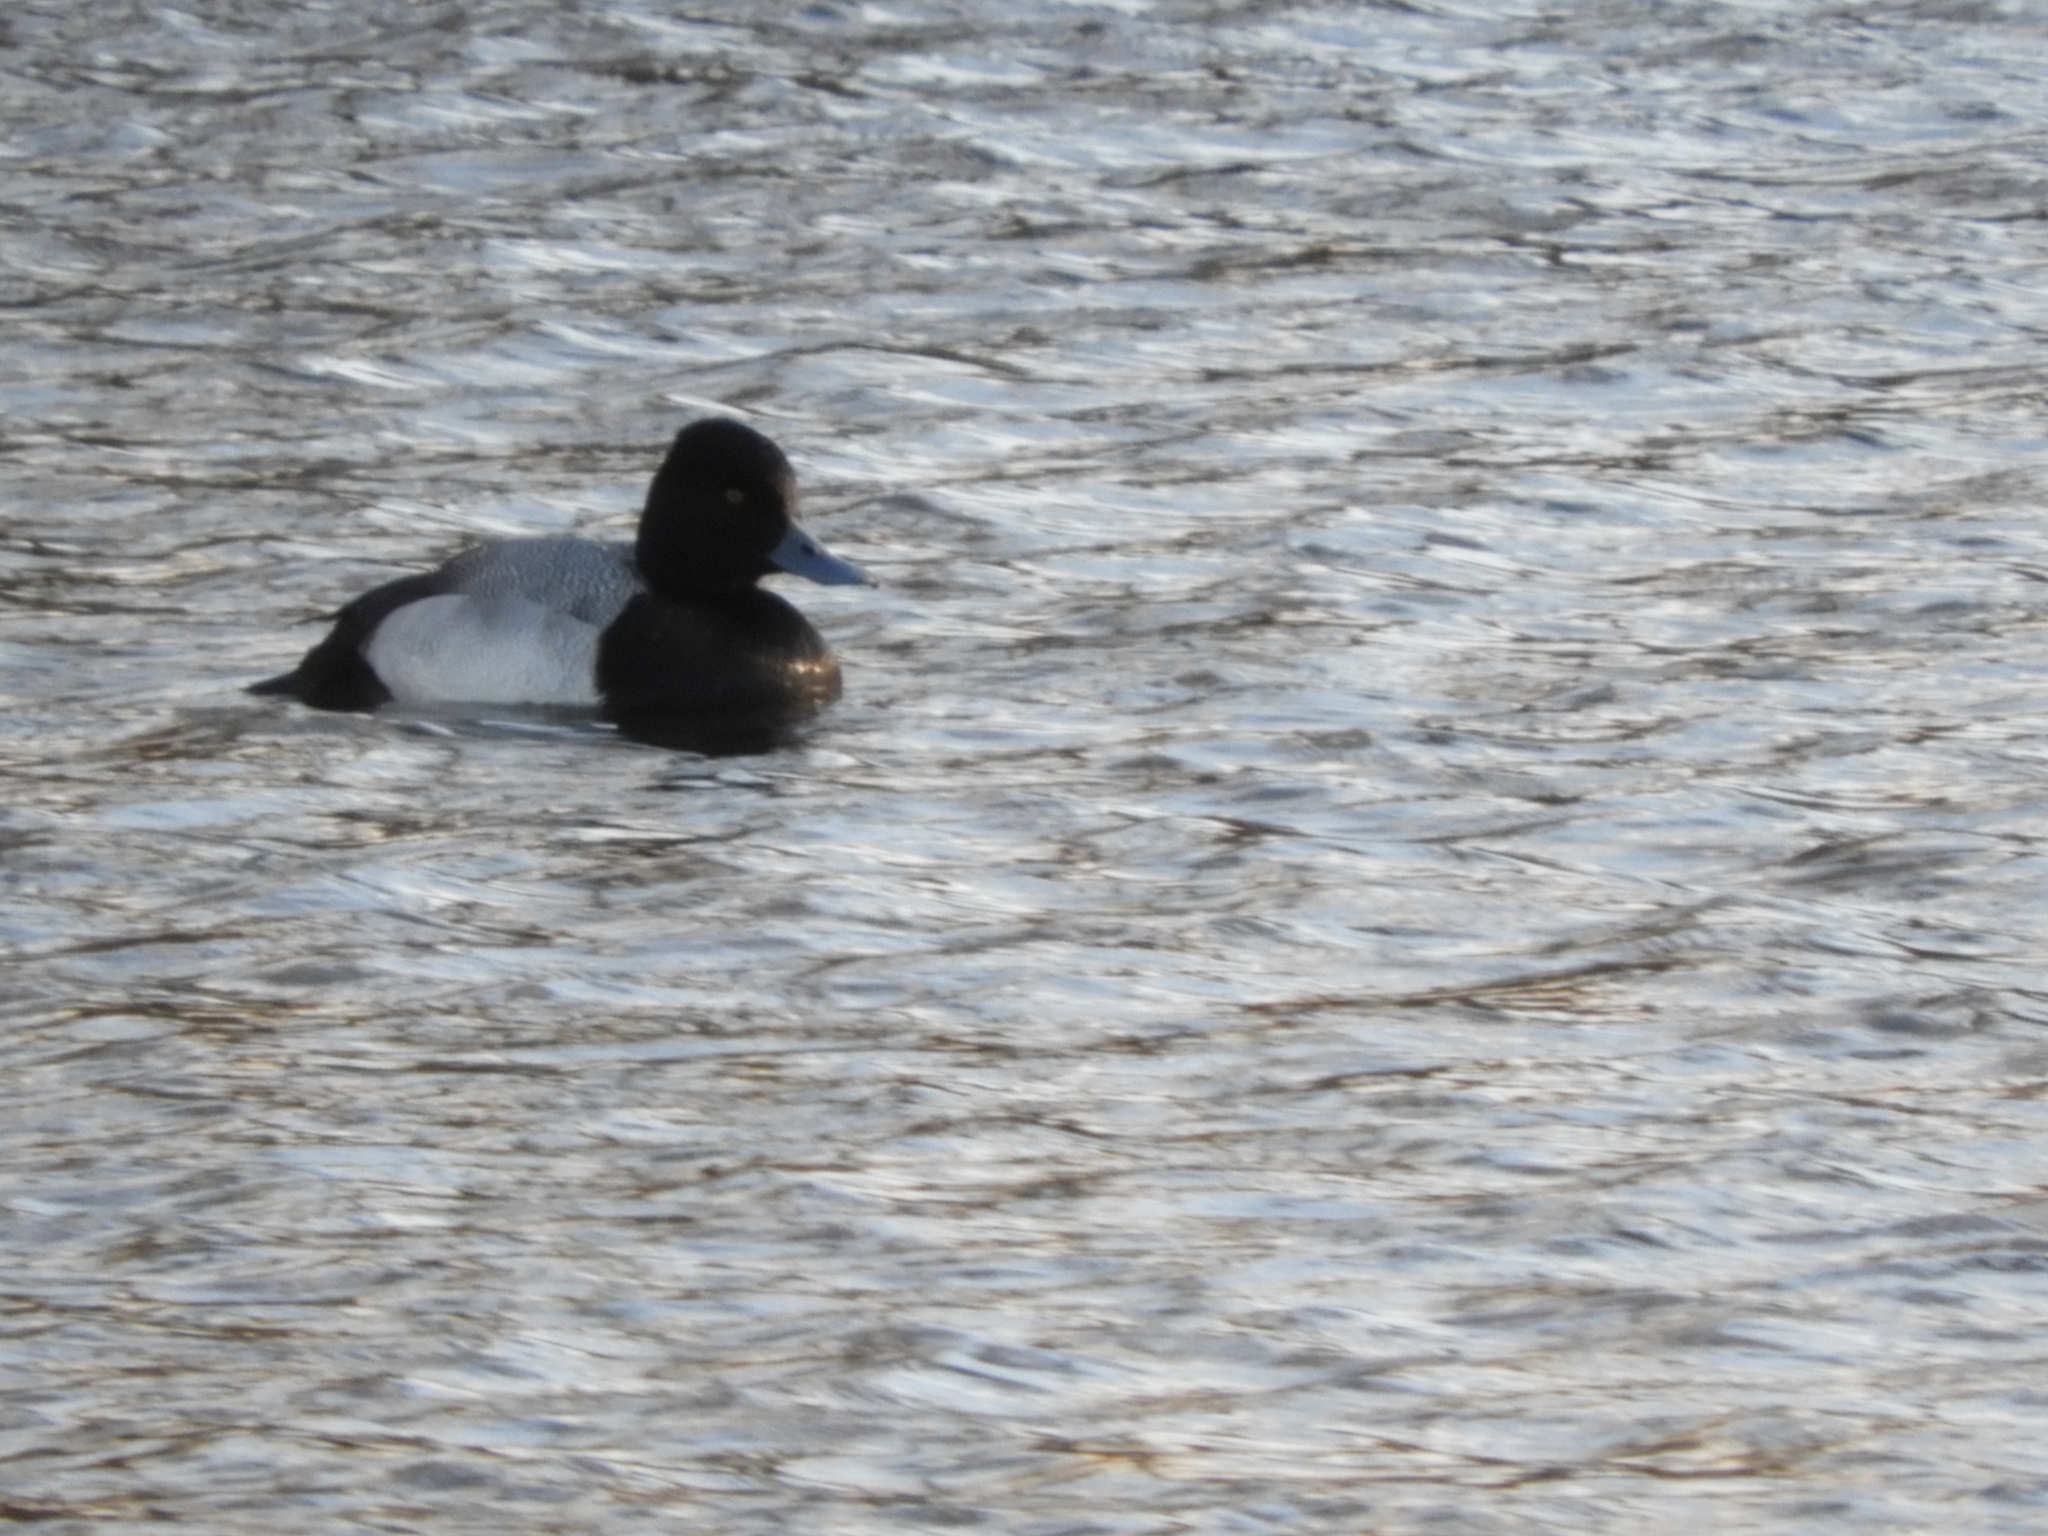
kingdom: Animalia
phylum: Chordata
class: Aves
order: Anseriformes
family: Anatidae
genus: Aythya
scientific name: Aythya affinis
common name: Lesser scaup
